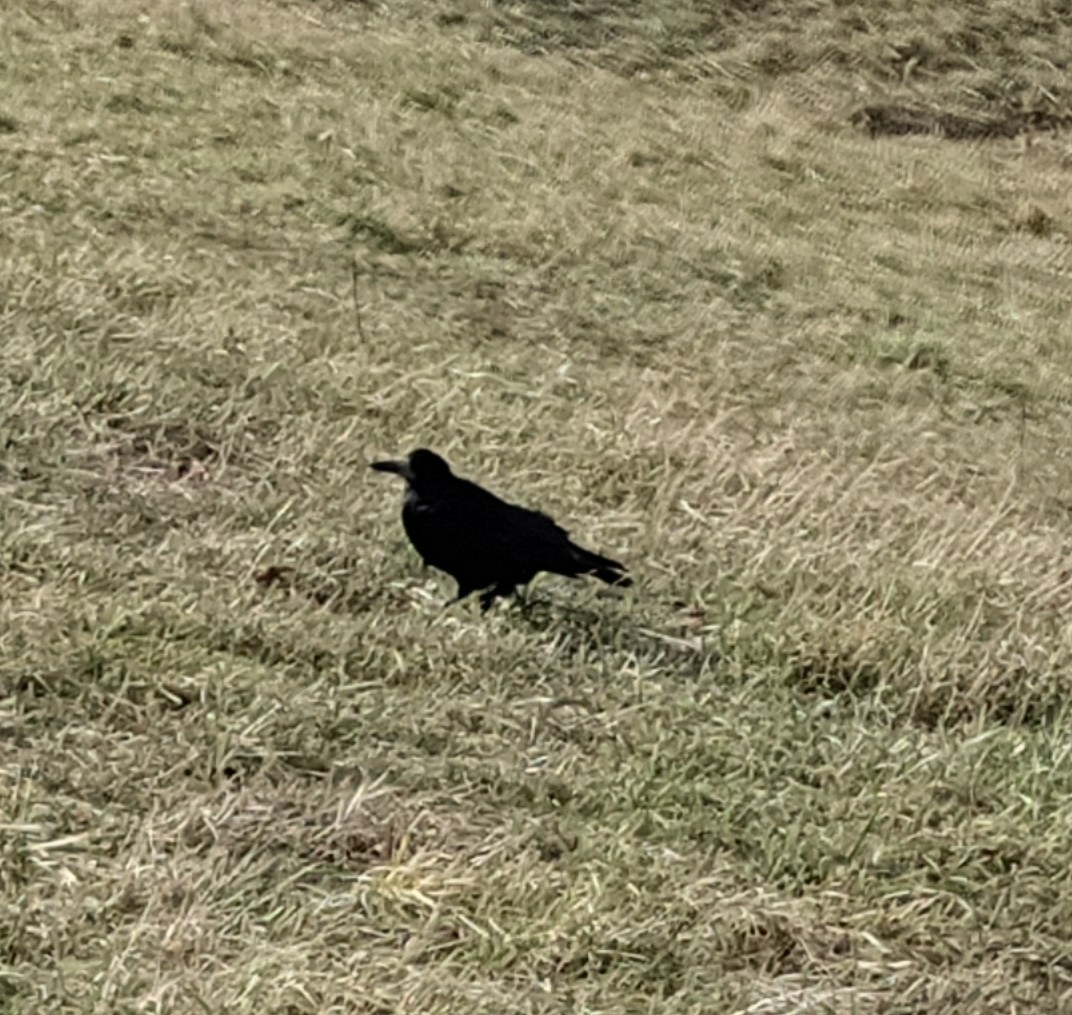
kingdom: Animalia
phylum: Chordata
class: Aves
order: Passeriformes
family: Corvidae
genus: Corvus
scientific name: Corvus frugilegus
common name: Rook
